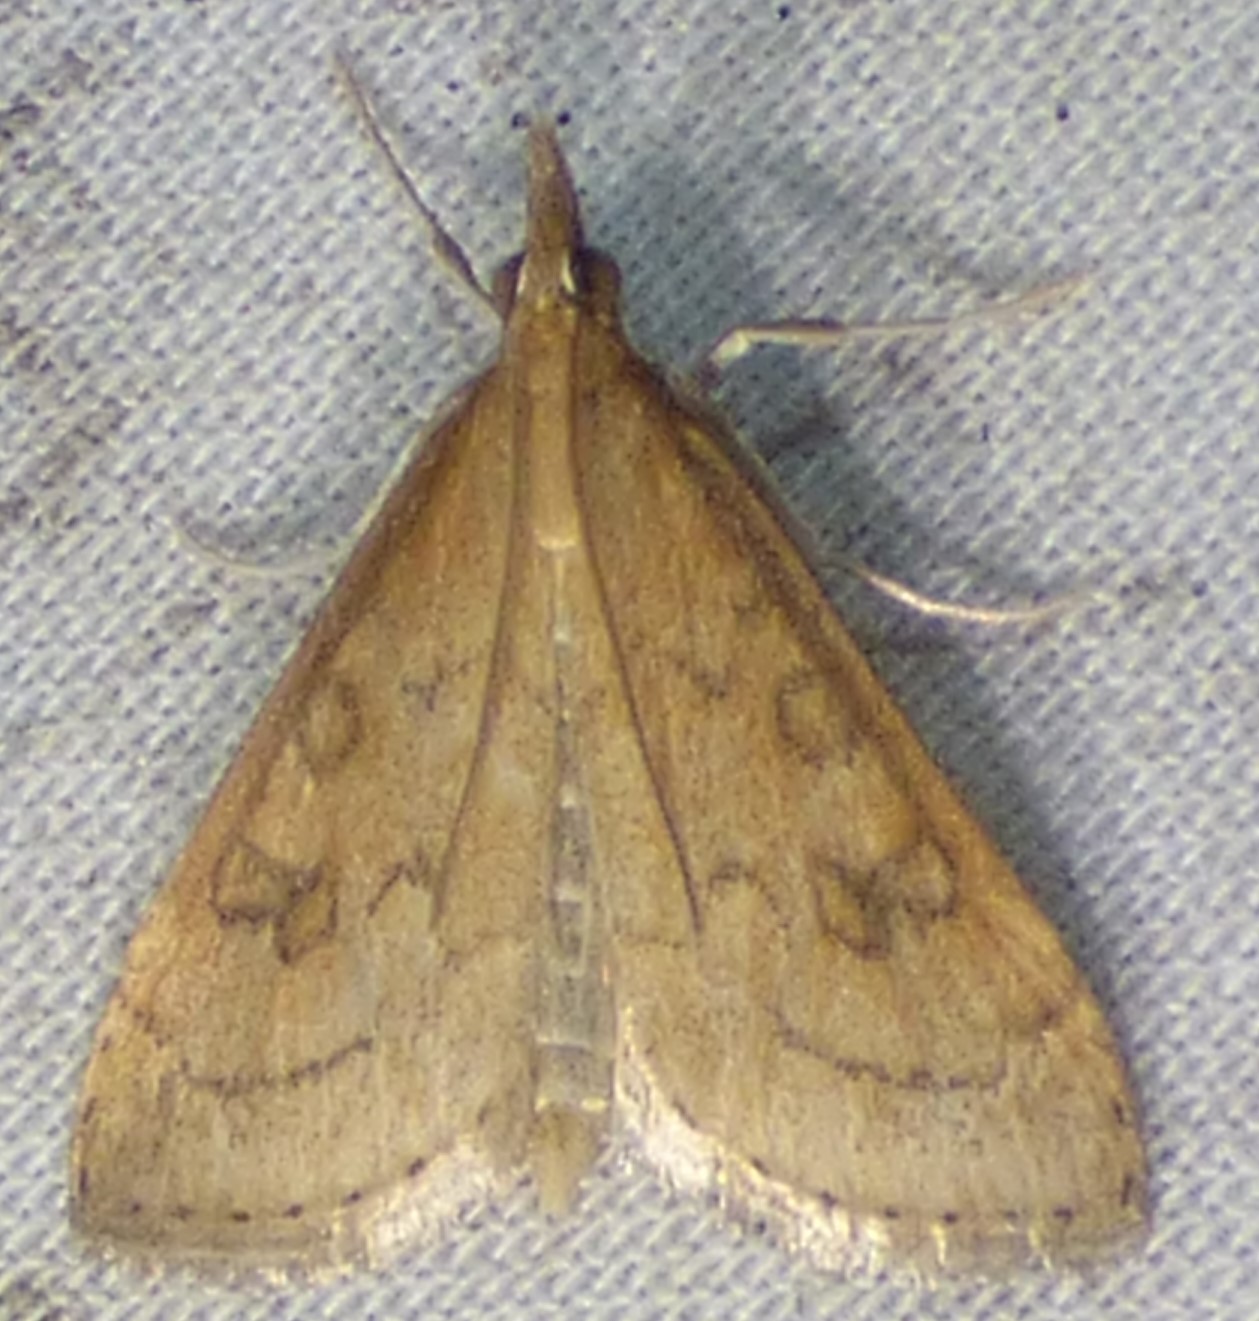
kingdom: Animalia
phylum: Arthropoda
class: Insecta
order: Lepidoptera
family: Crambidae
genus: Udea
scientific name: Udea rubigalis
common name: Celery leaftier moth
